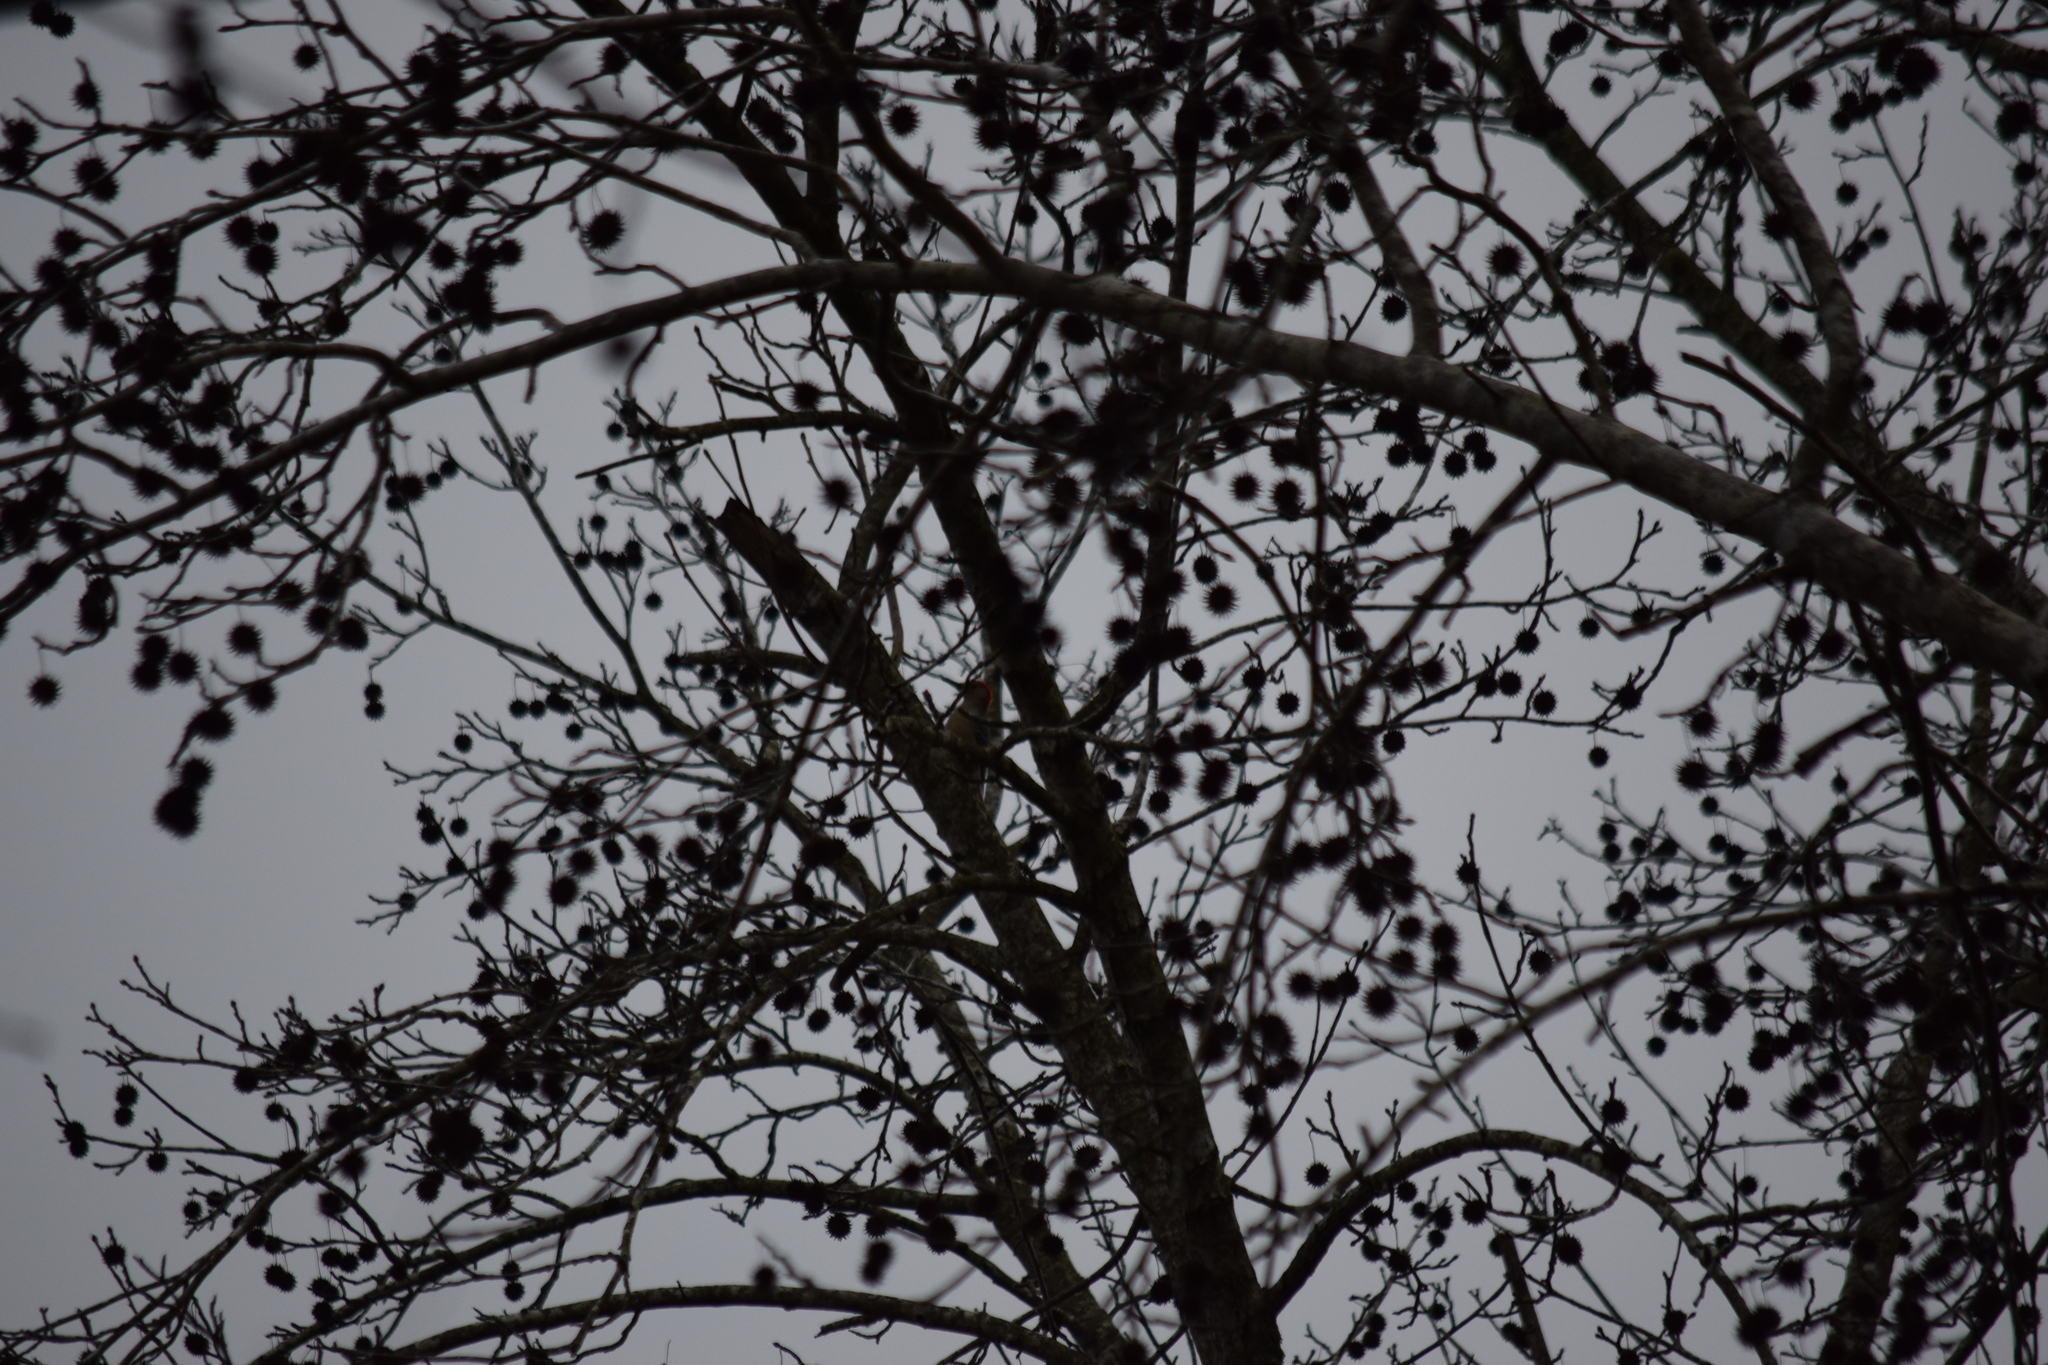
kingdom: Animalia
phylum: Chordata
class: Aves
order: Piciformes
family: Picidae
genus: Melanerpes
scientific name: Melanerpes carolinus
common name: Red-bellied woodpecker
